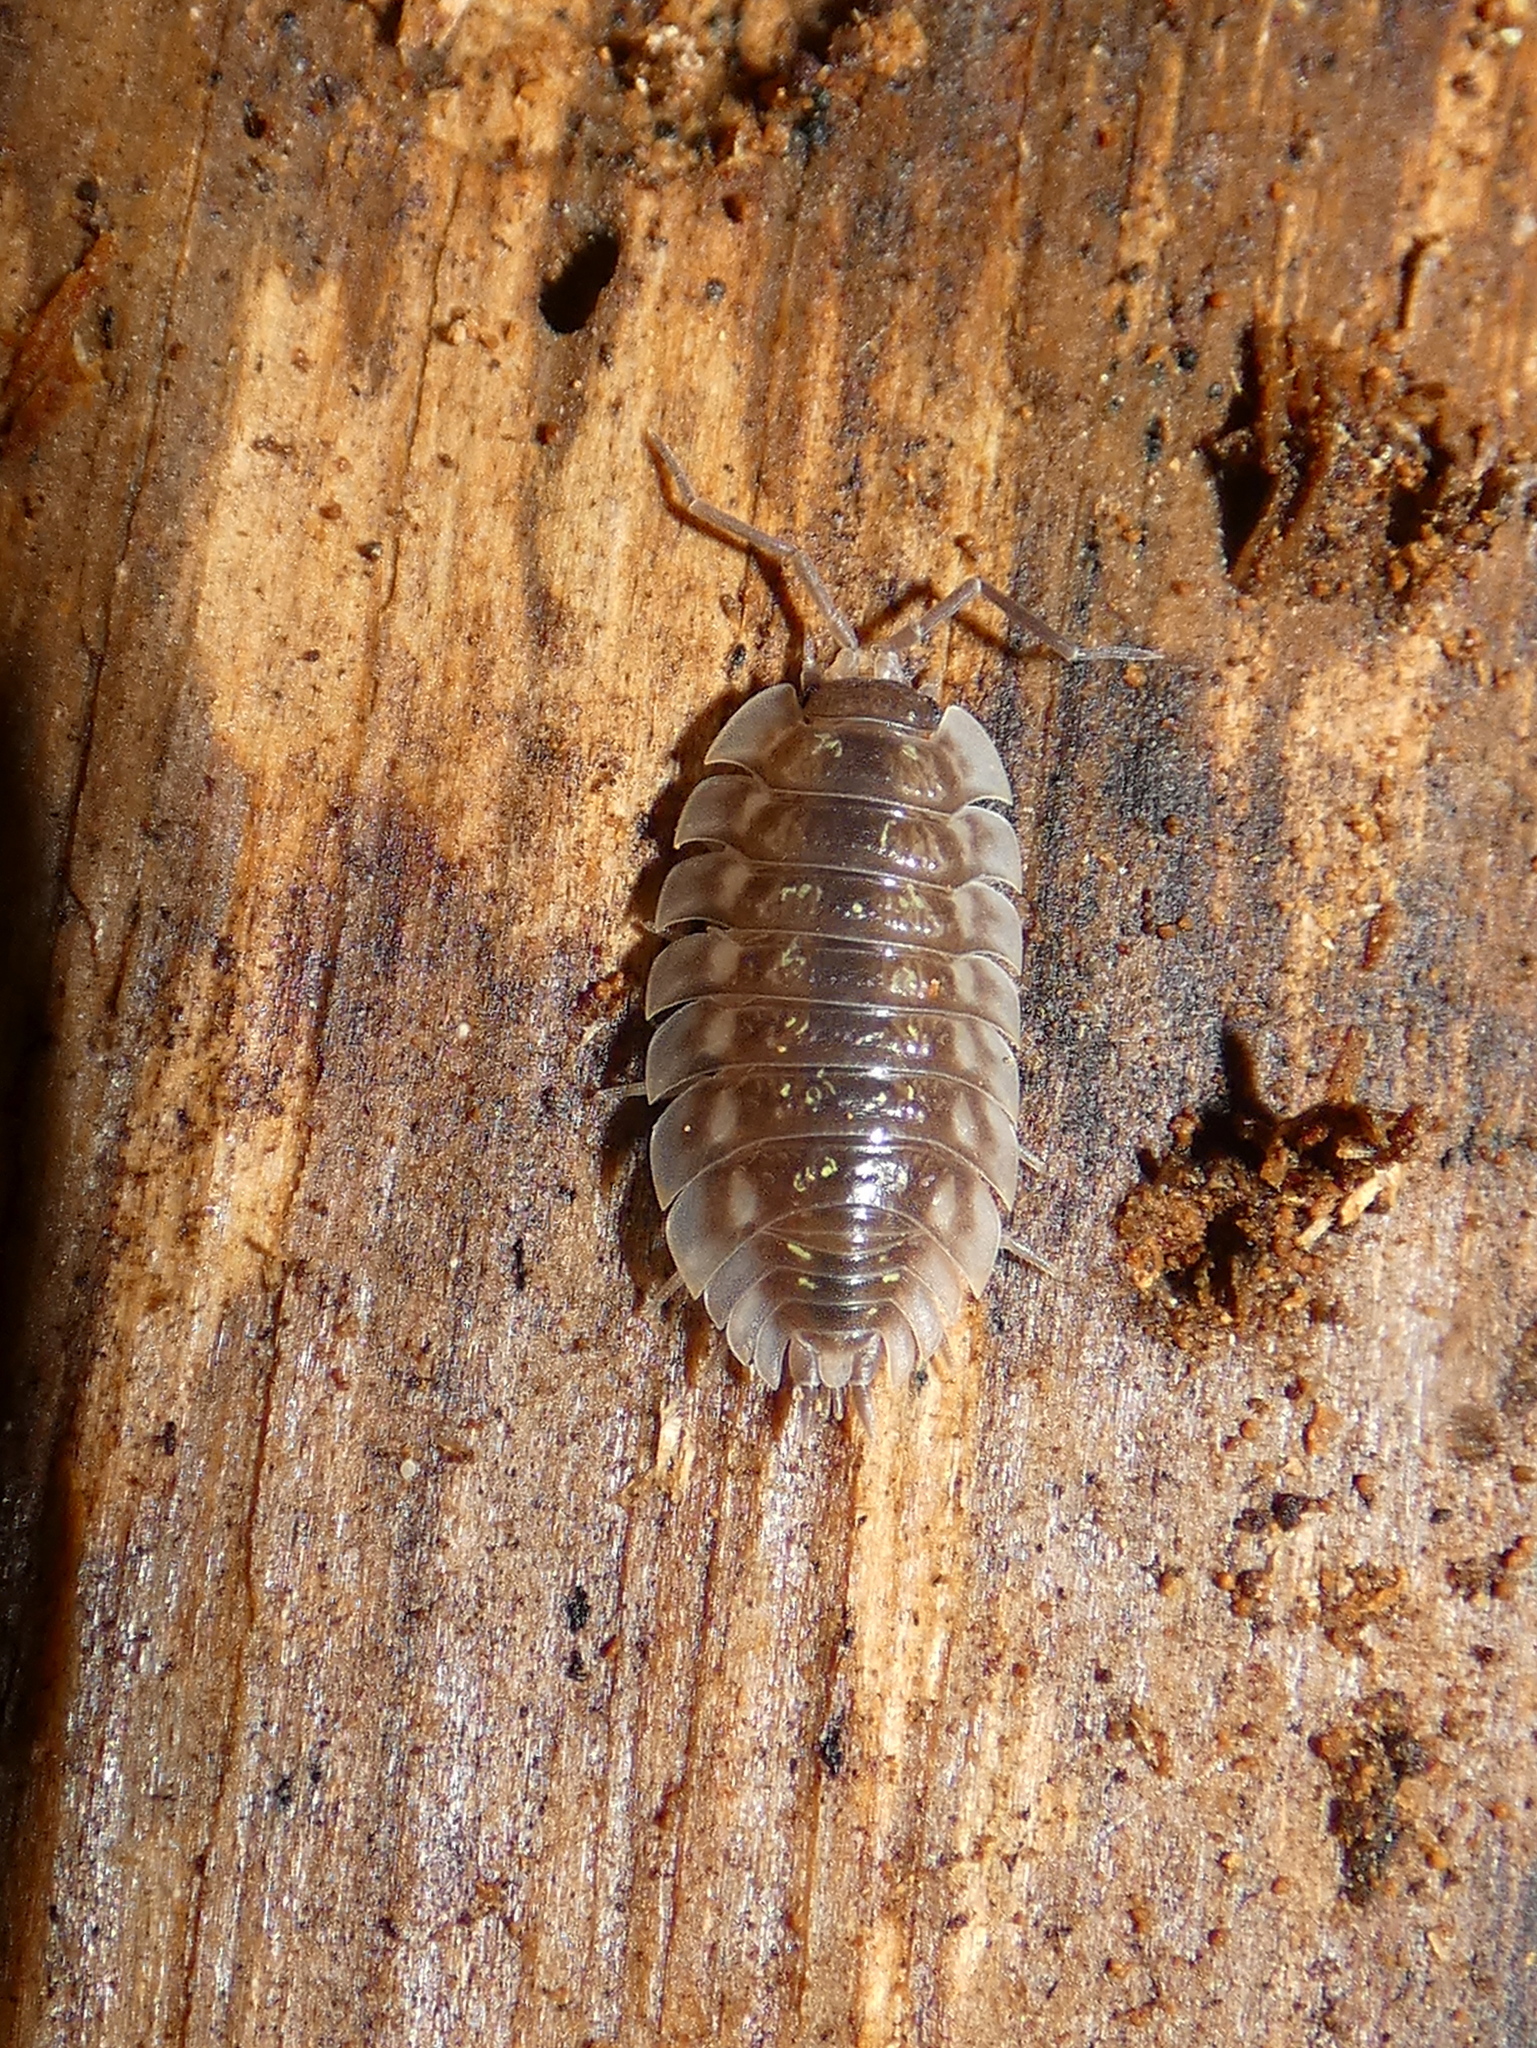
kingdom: Animalia
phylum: Arthropoda
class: Malacostraca
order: Isopoda
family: Oniscidae
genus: Oniscus
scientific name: Oniscus asellus
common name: Common shiny woodlouse
